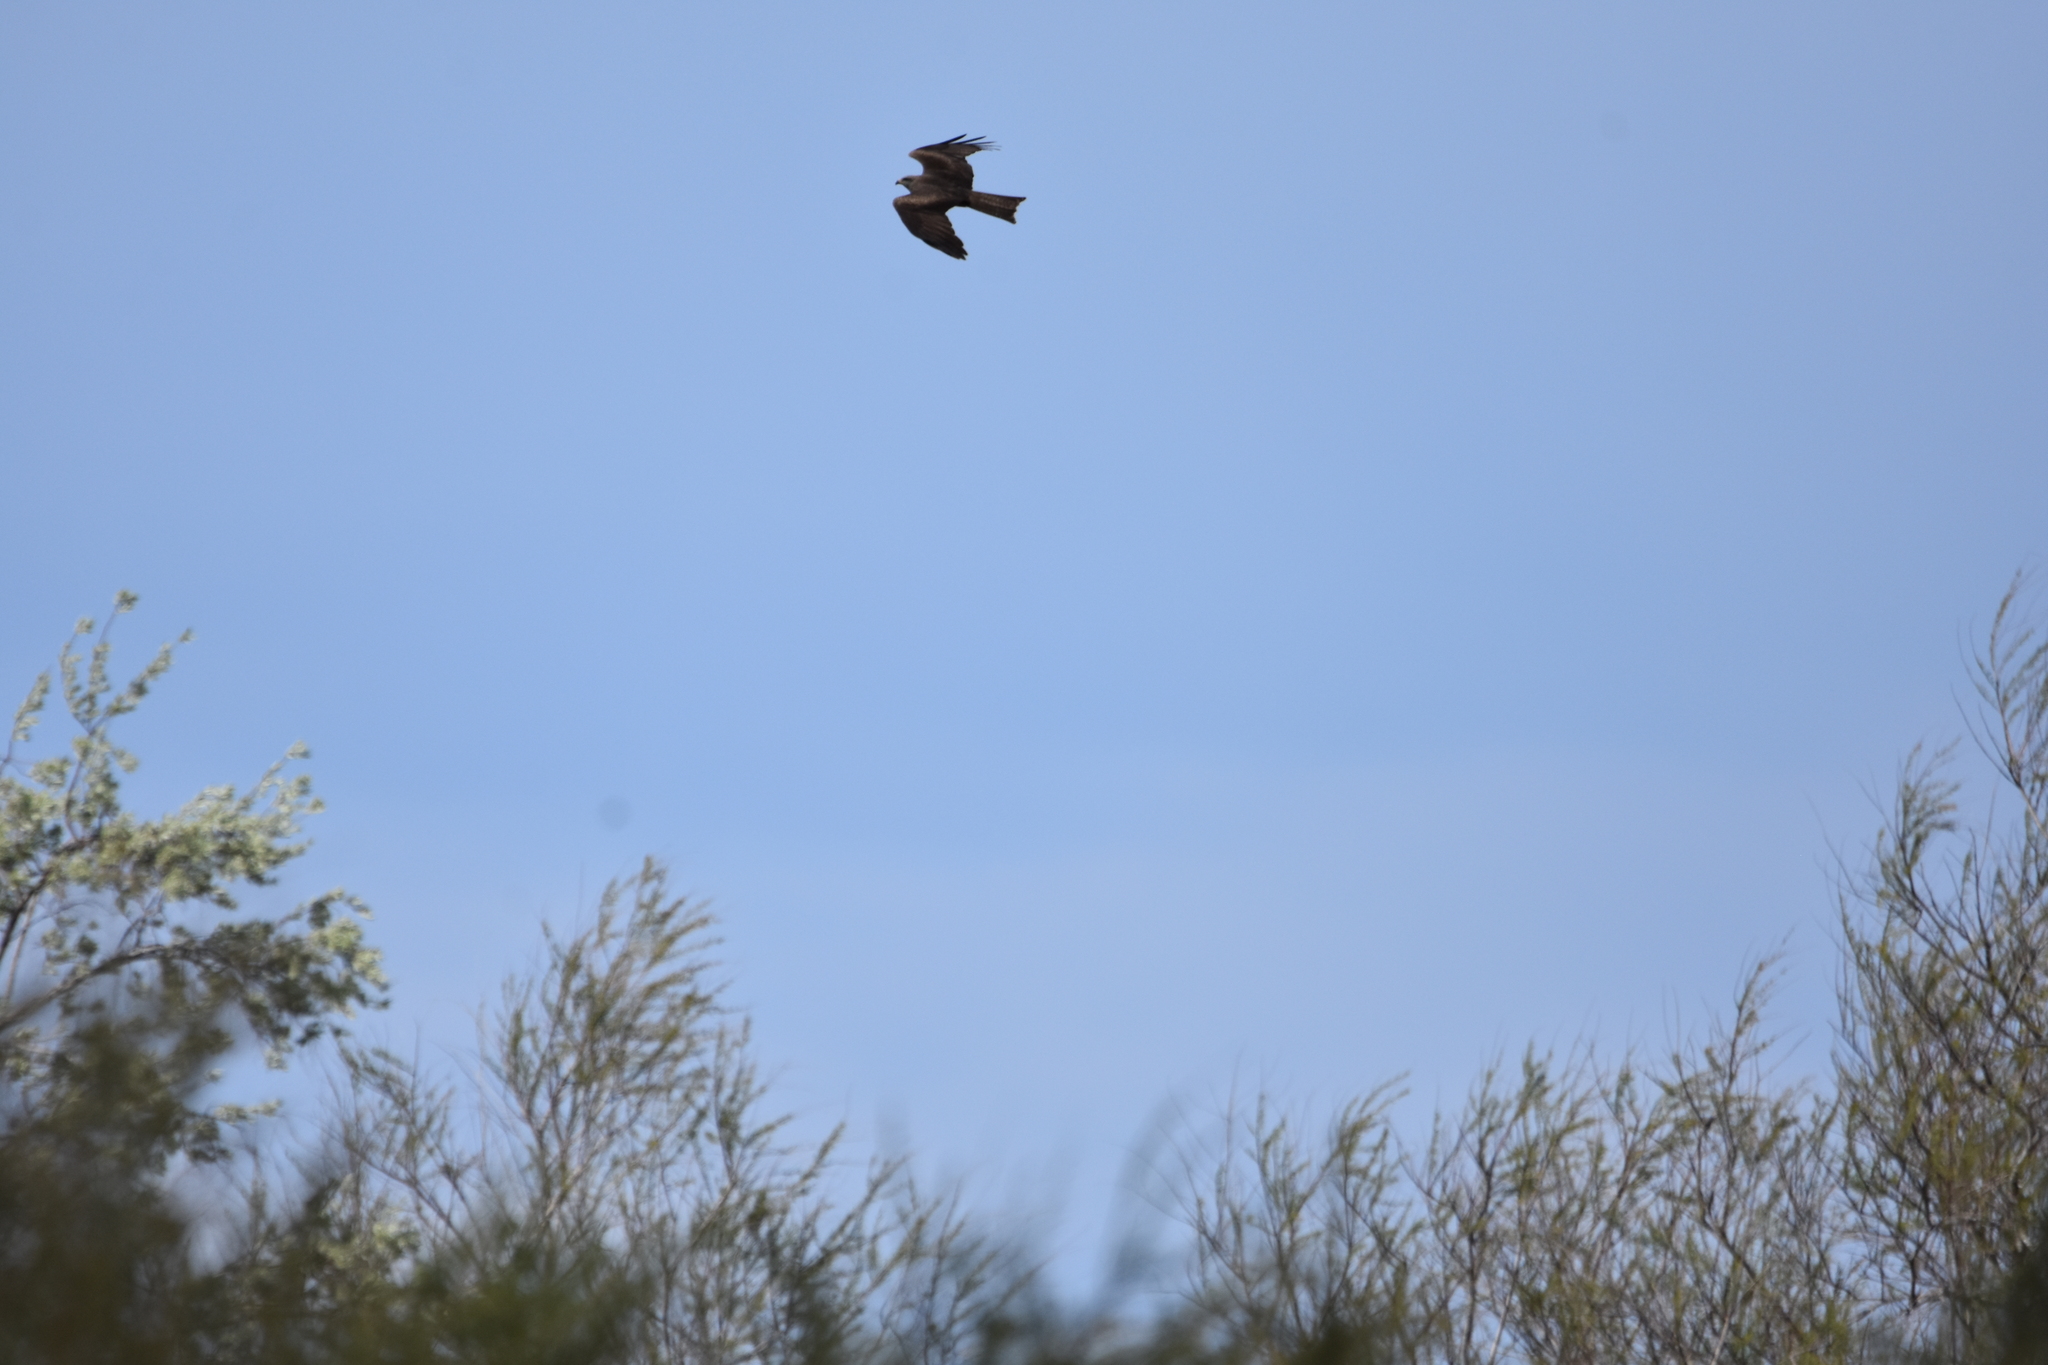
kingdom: Animalia
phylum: Chordata
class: Aves
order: Accipitriformes
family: Accipitridae
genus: Milvus
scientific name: Milvus migrans
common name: Black kite
